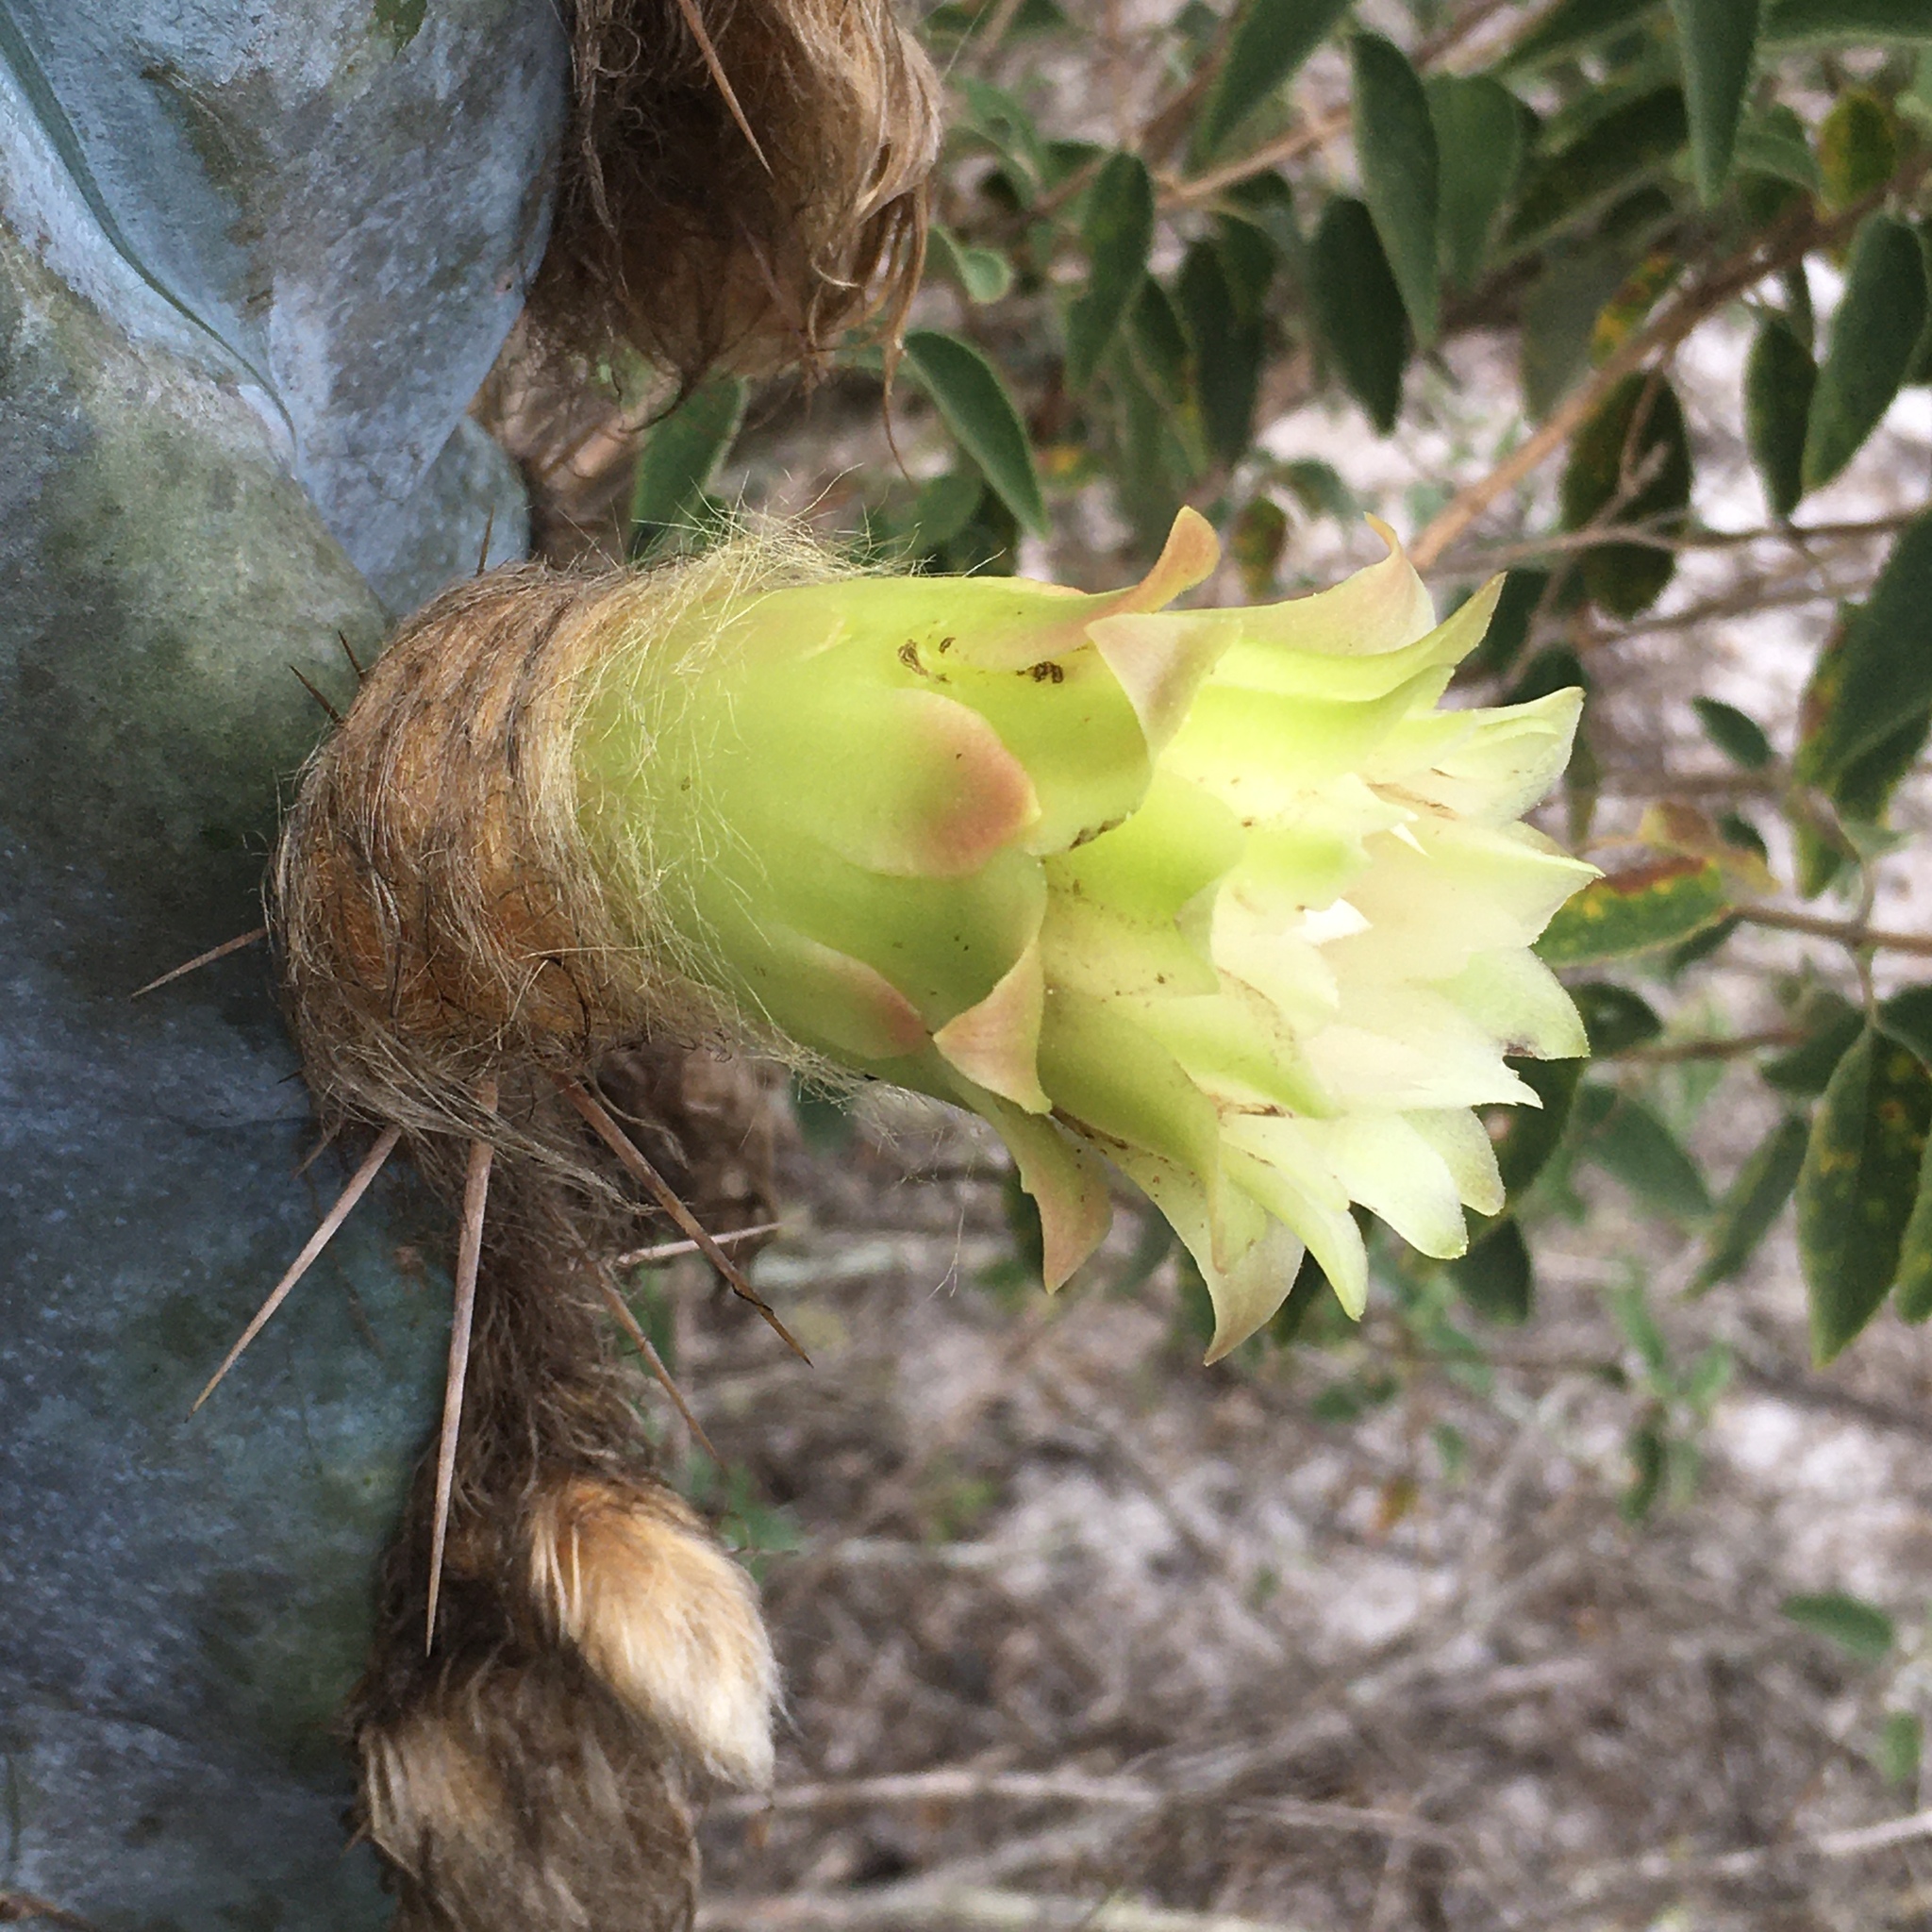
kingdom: Plantae
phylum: Tracheophyta
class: Magnoliopsida
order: Caryophyllales
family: Cactaceae
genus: Pilosocereus
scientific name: Pilosocereus fulvilanatus
